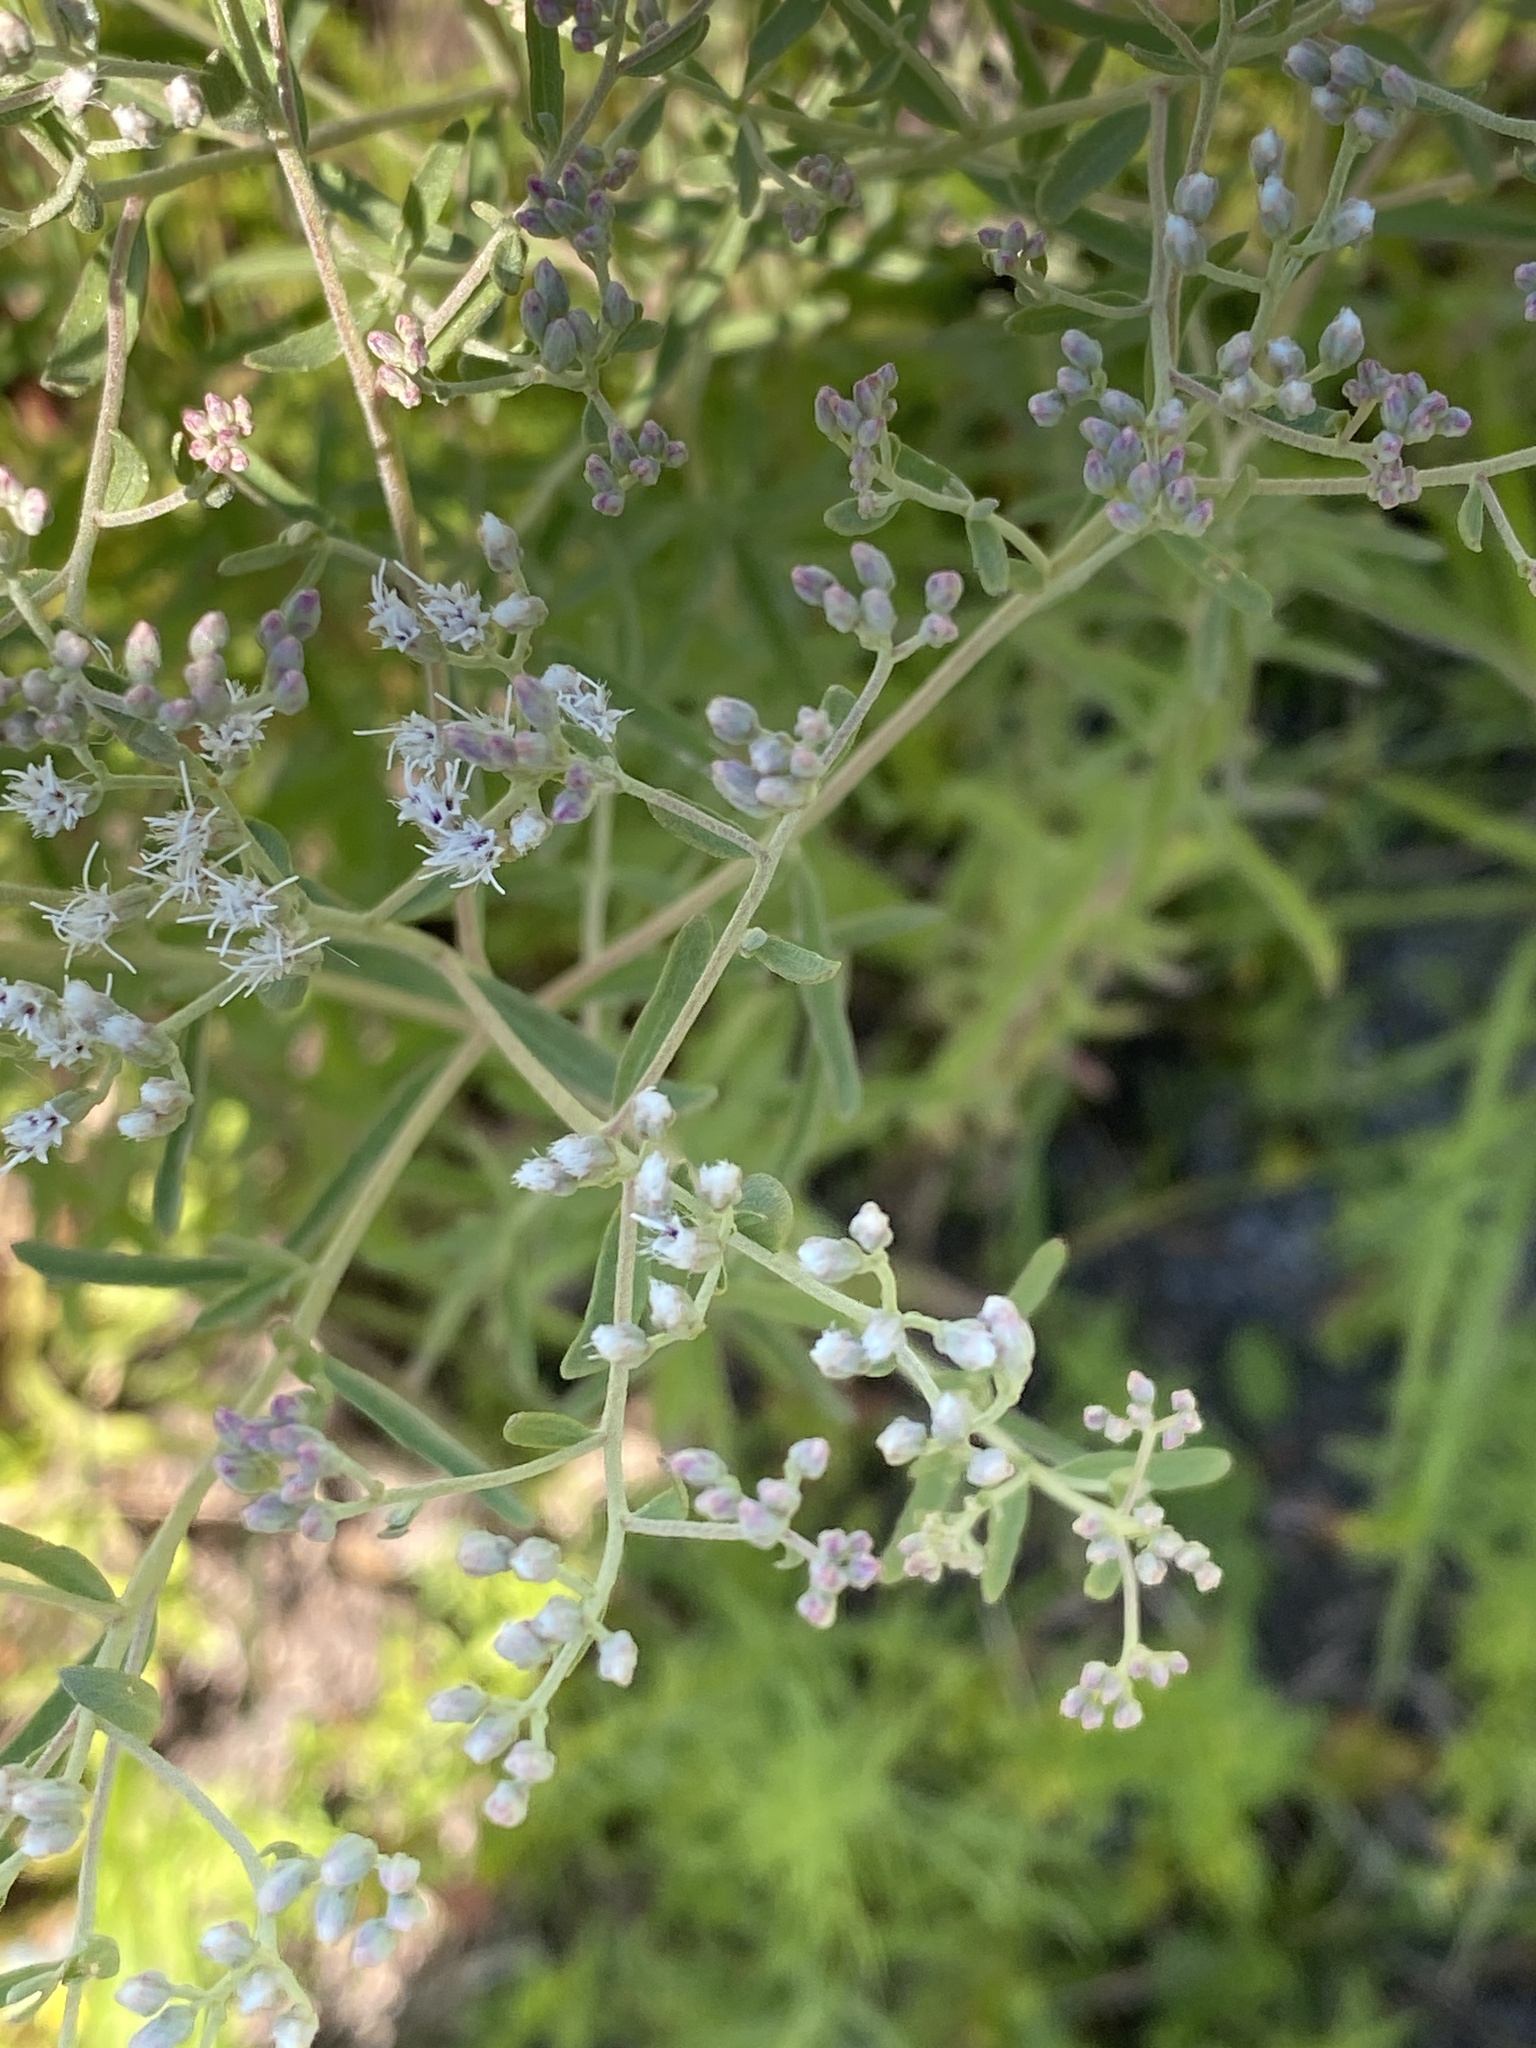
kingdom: Plantae
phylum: Tracheophyta
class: Magnoliopsida
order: Asterales
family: Asteraceae
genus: Eupatorium
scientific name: Eupatorium mohrii
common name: Mohr's thoroughwort
